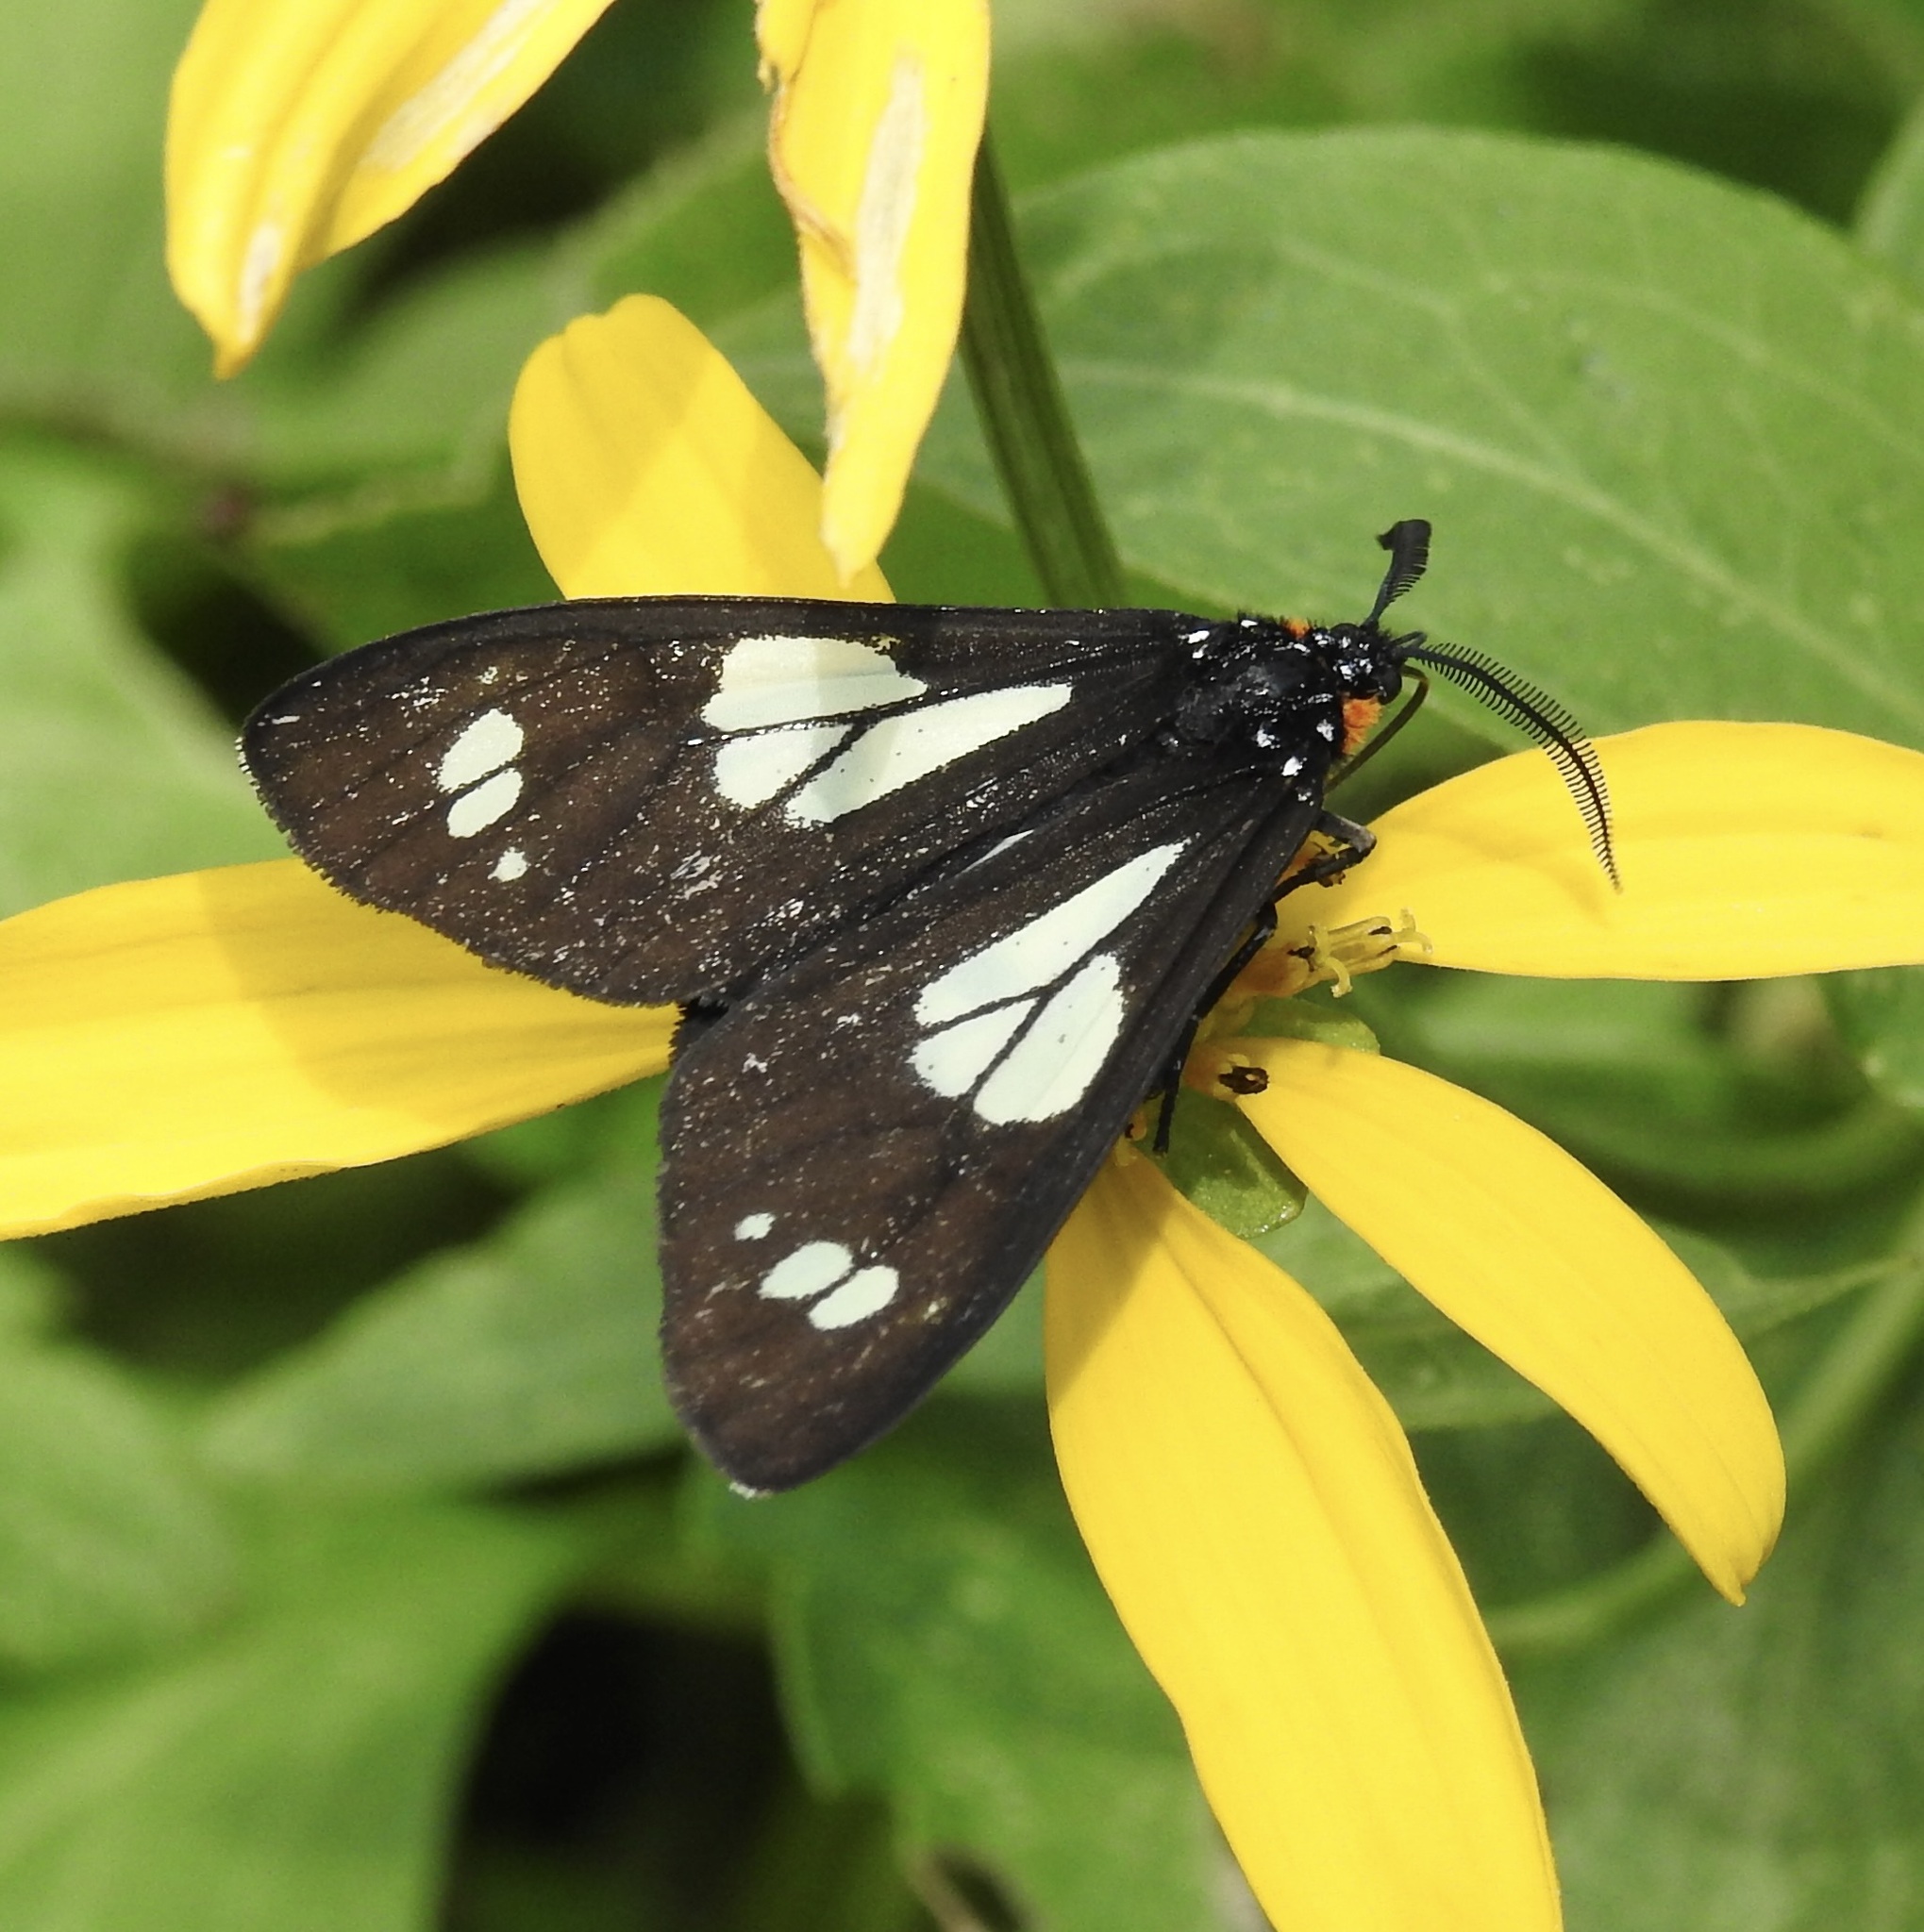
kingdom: Animalia
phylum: Arthropoda
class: Insecta
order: Lepidoptera
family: Erebidae
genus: Gnophaela
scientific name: Gnophaela discreta
